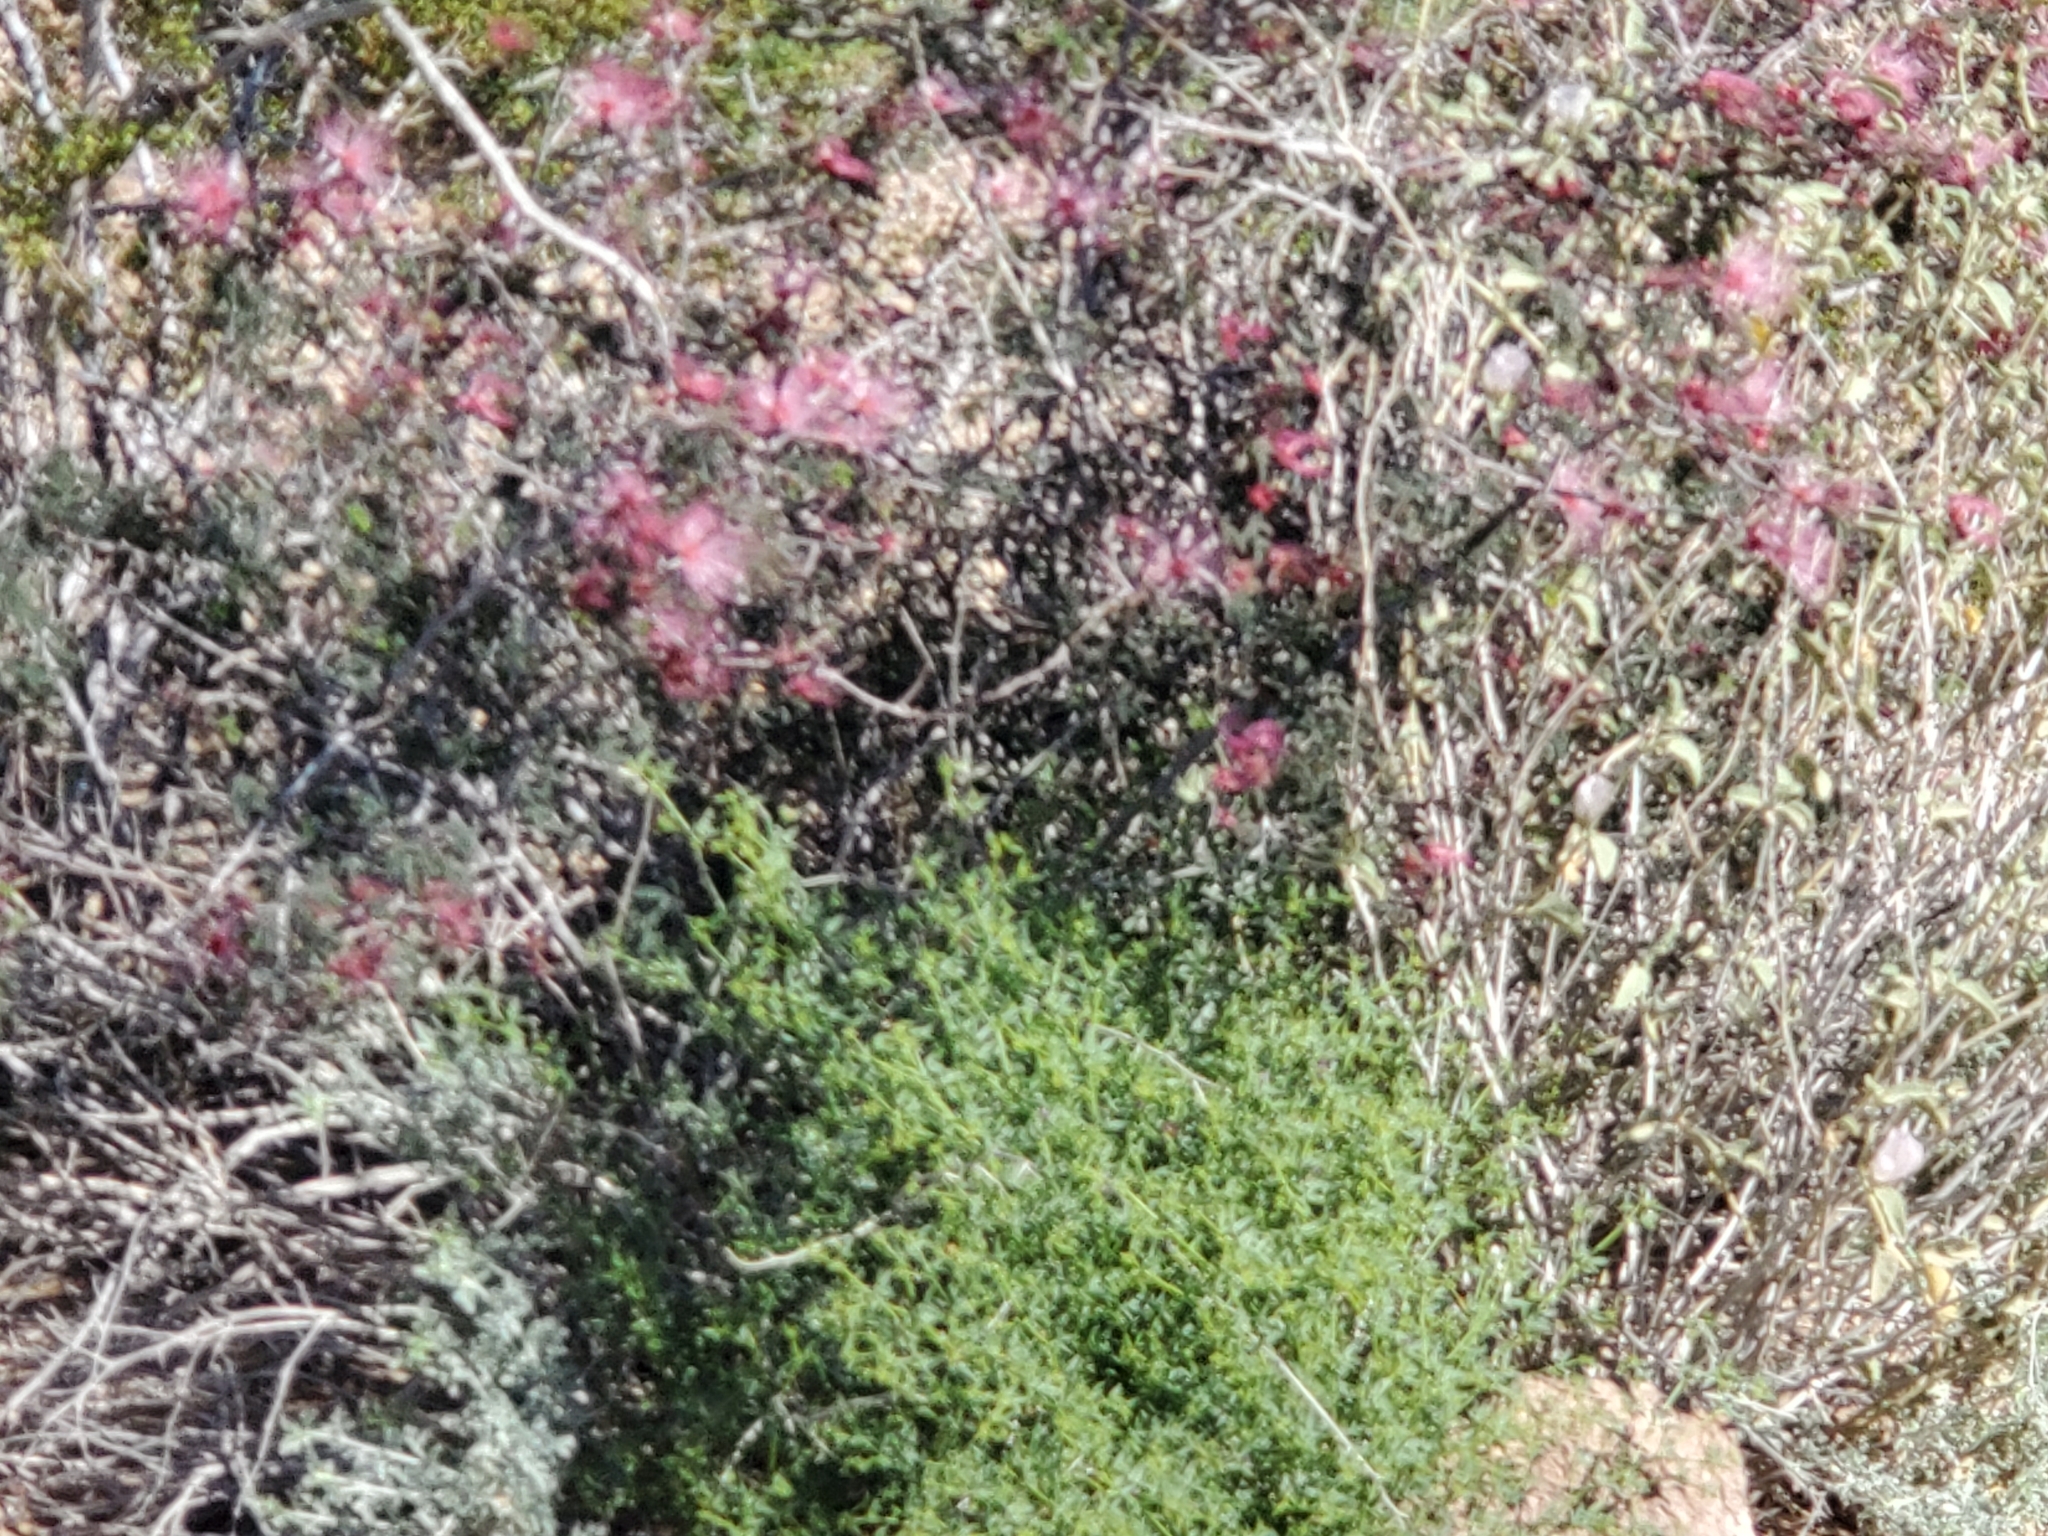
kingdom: Plantae
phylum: Tracheophyta
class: Magnoliopsida
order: Fabales
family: Fabaceae
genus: Calliandra
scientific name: Calliandra eriophylla
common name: Fairy-duster
